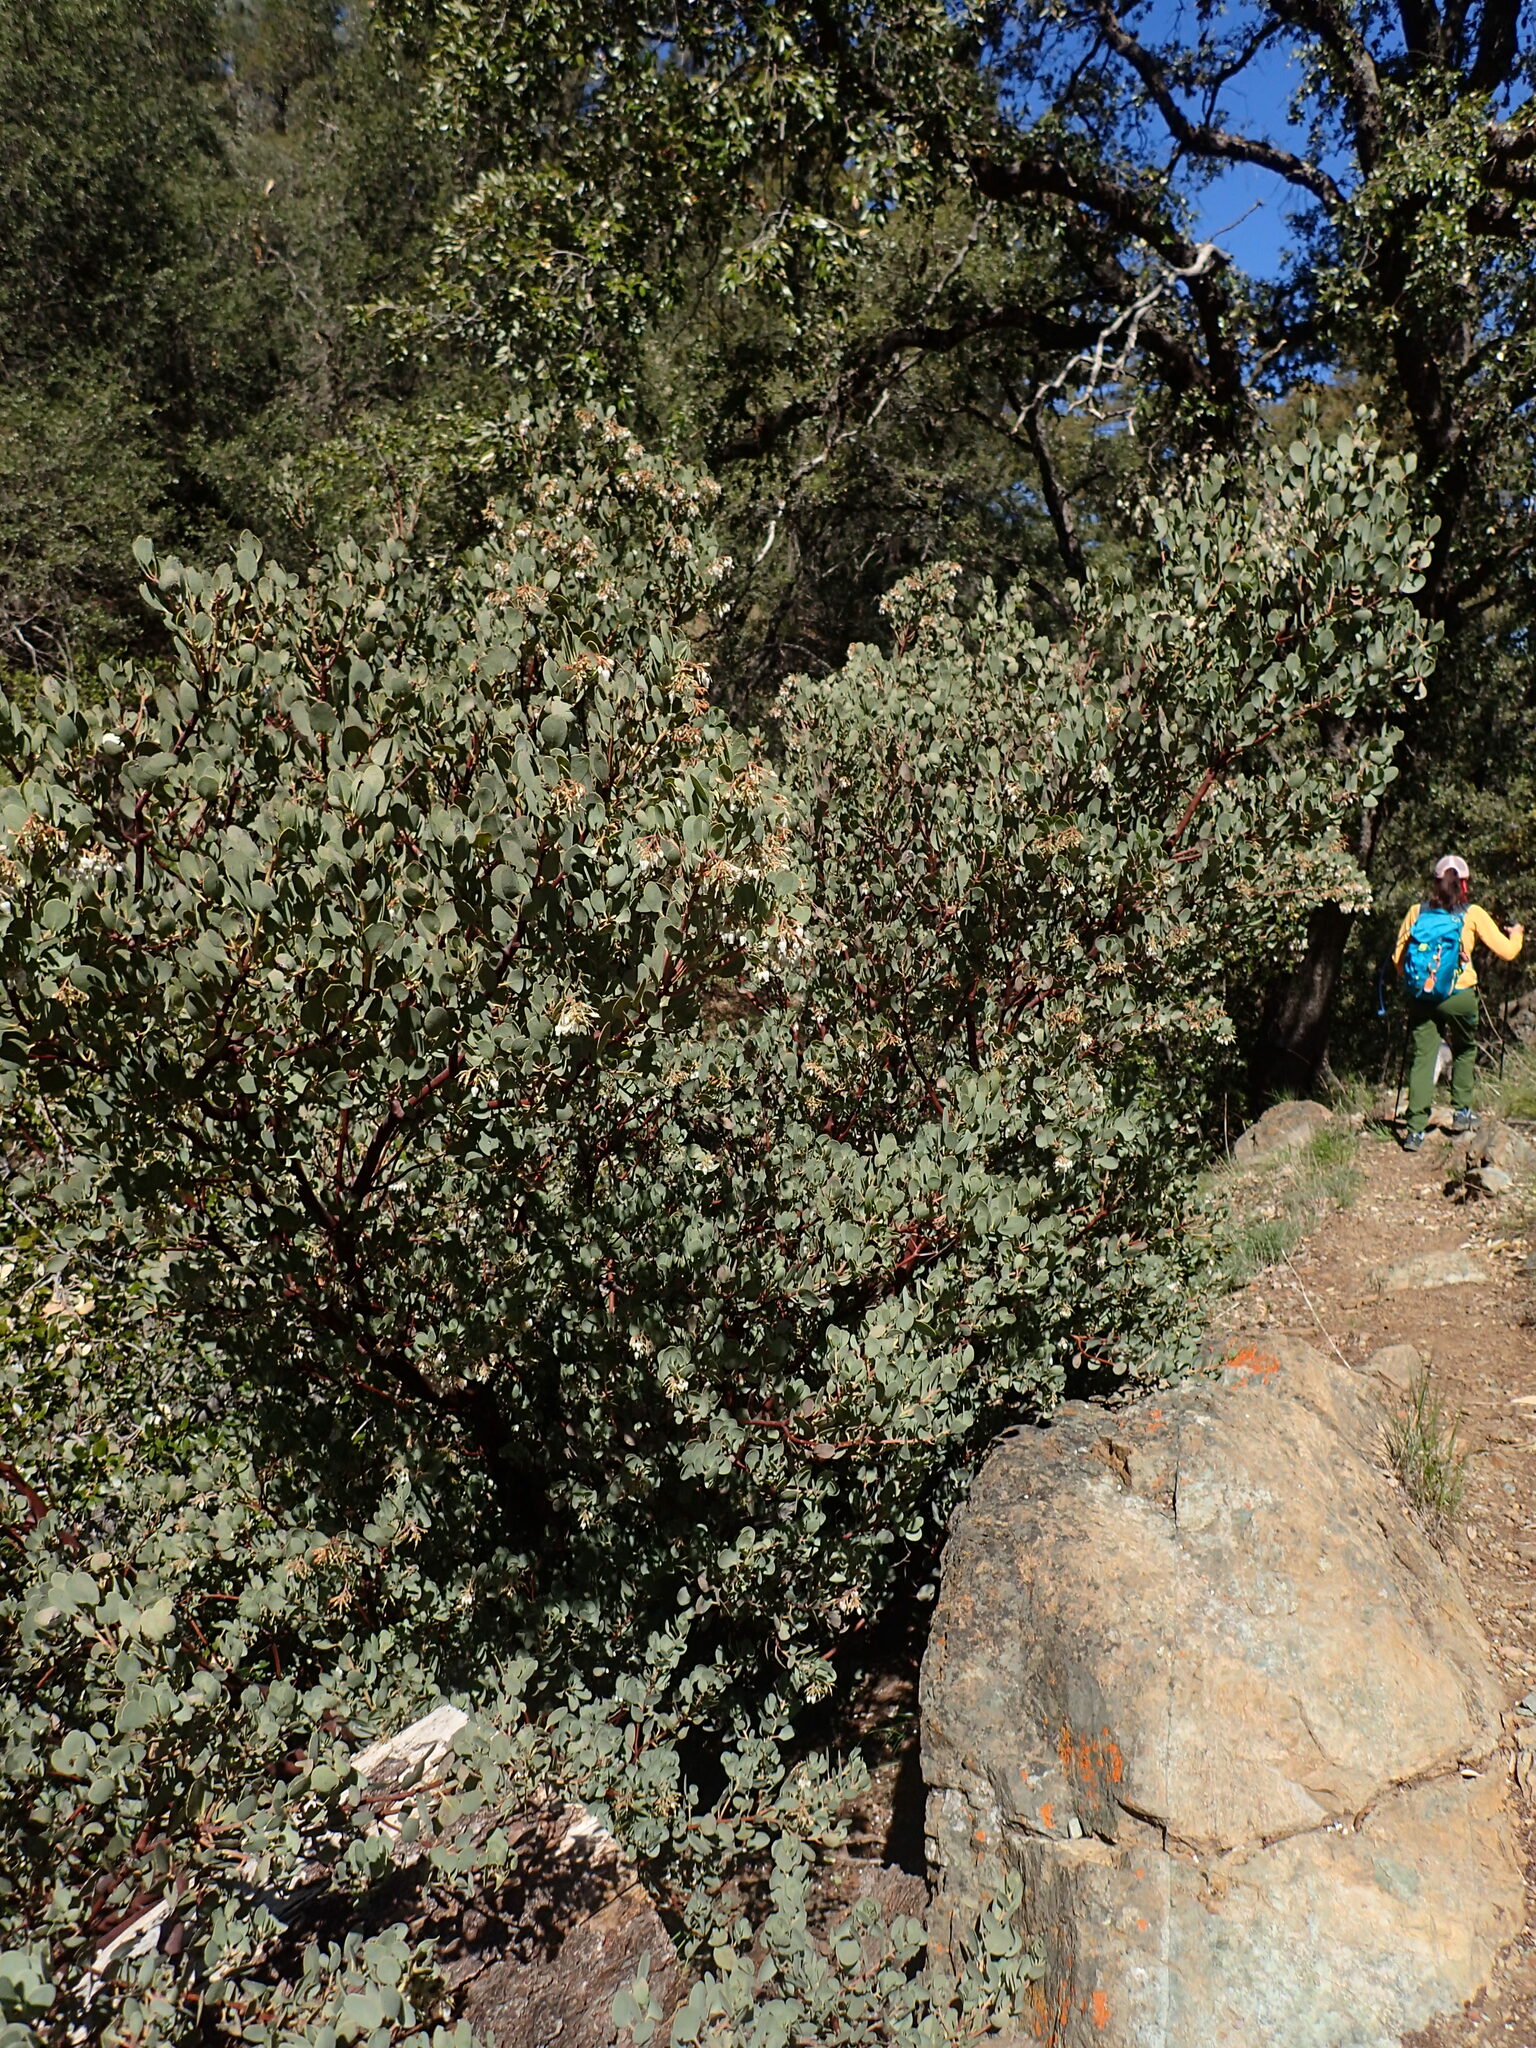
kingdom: Plantae
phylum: Tracheophyta
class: Magnoliopsida
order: Ericales
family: Ericaceae
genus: Arctostaphylos
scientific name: Arctostaphylos glauca
